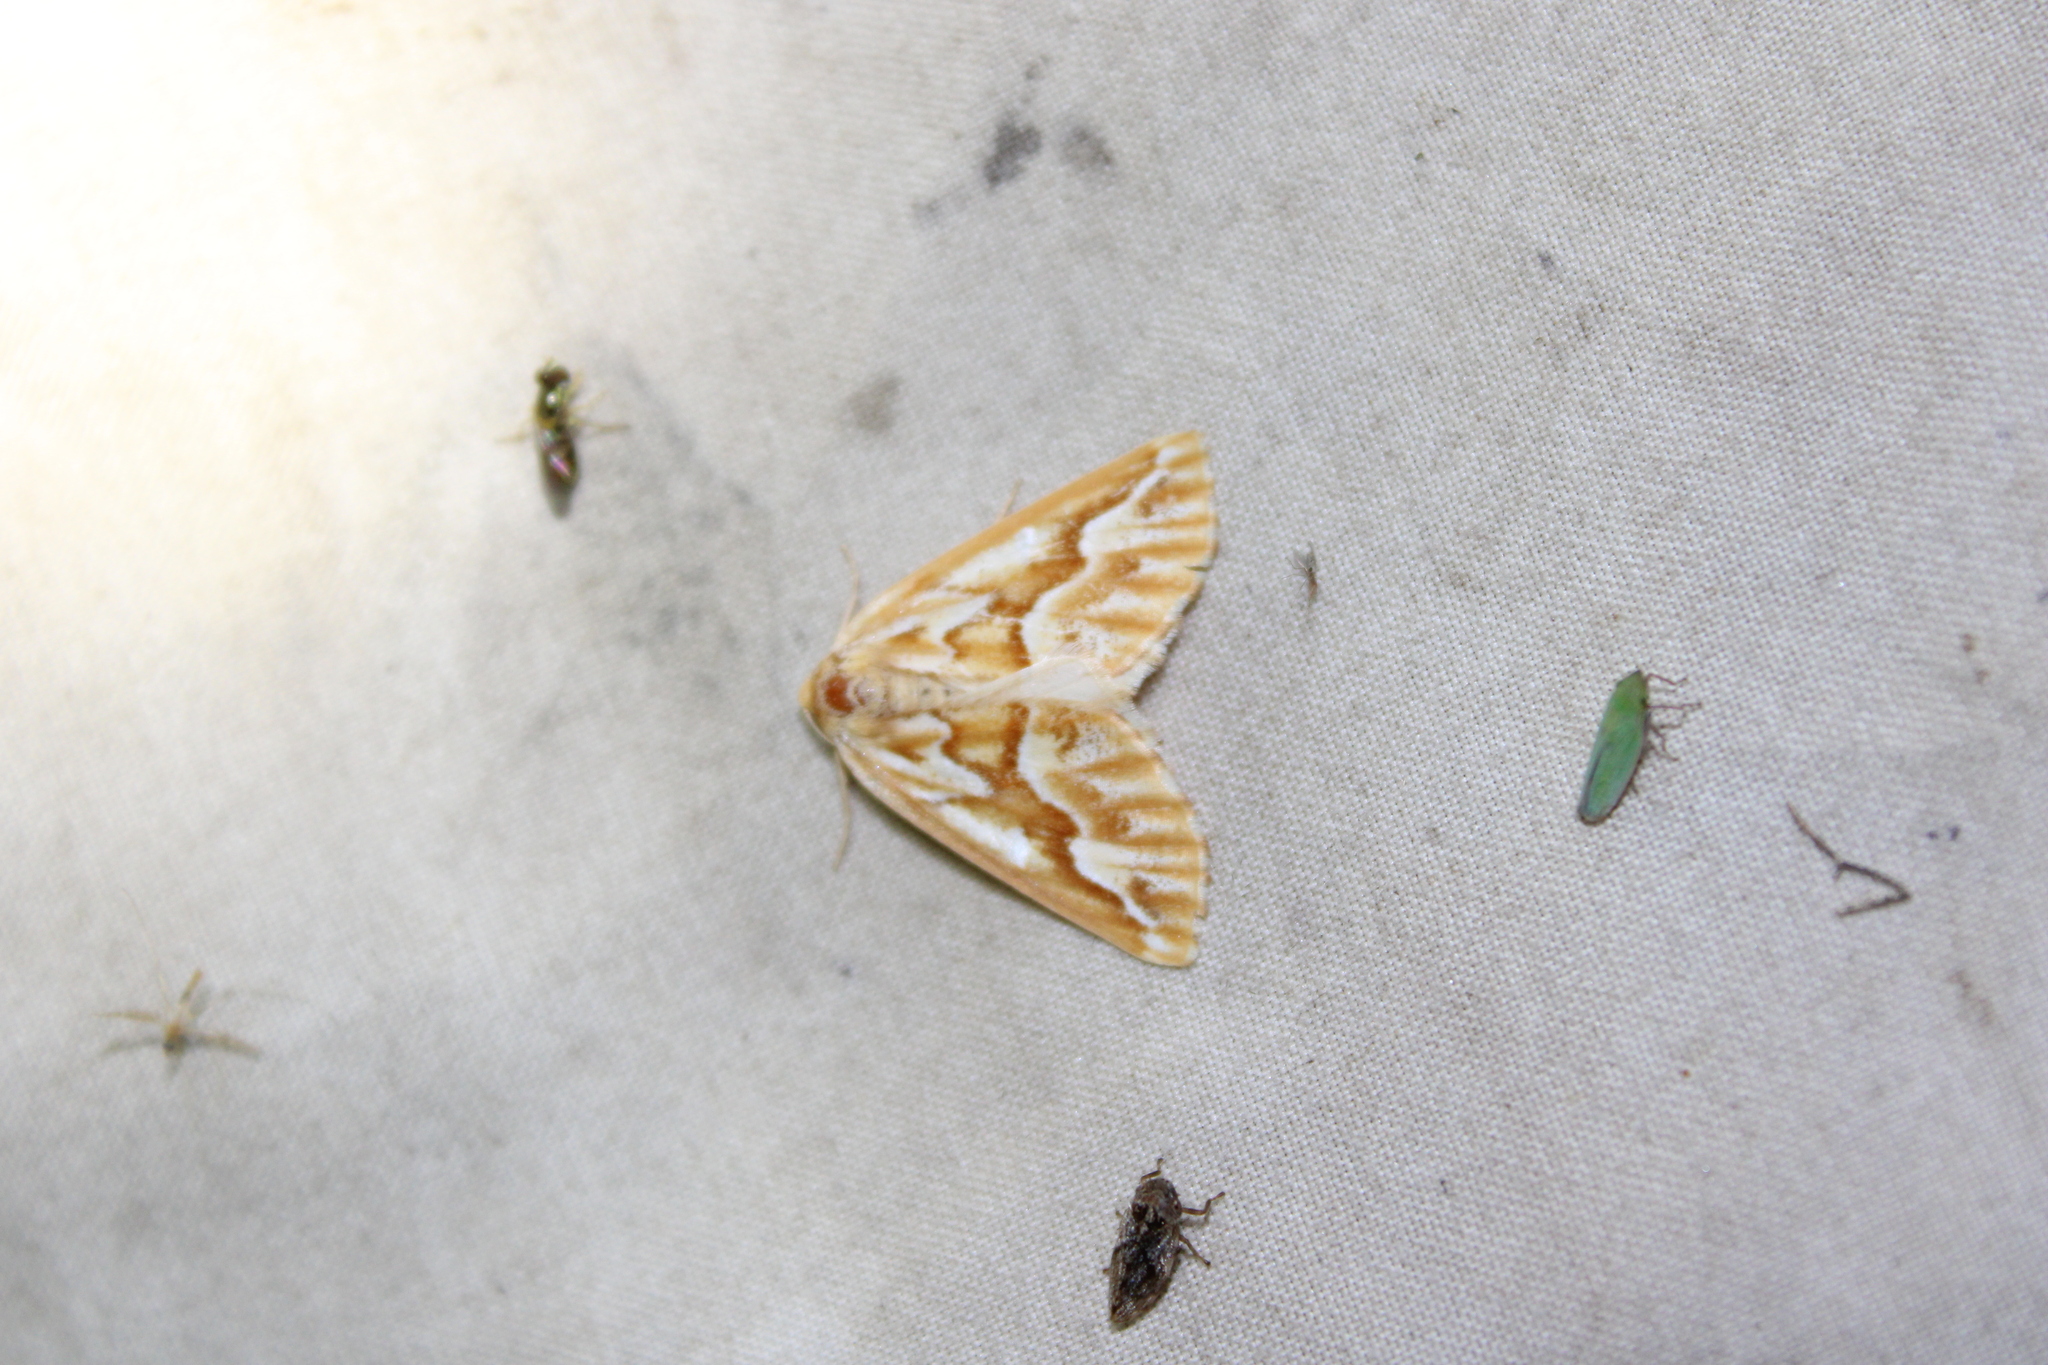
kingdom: Animalia
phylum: Arthropoda
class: Insecta
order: Lepidoptera
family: Geometridae
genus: Caripeta
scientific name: Caripeta piniata
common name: Northern pine looper moth
